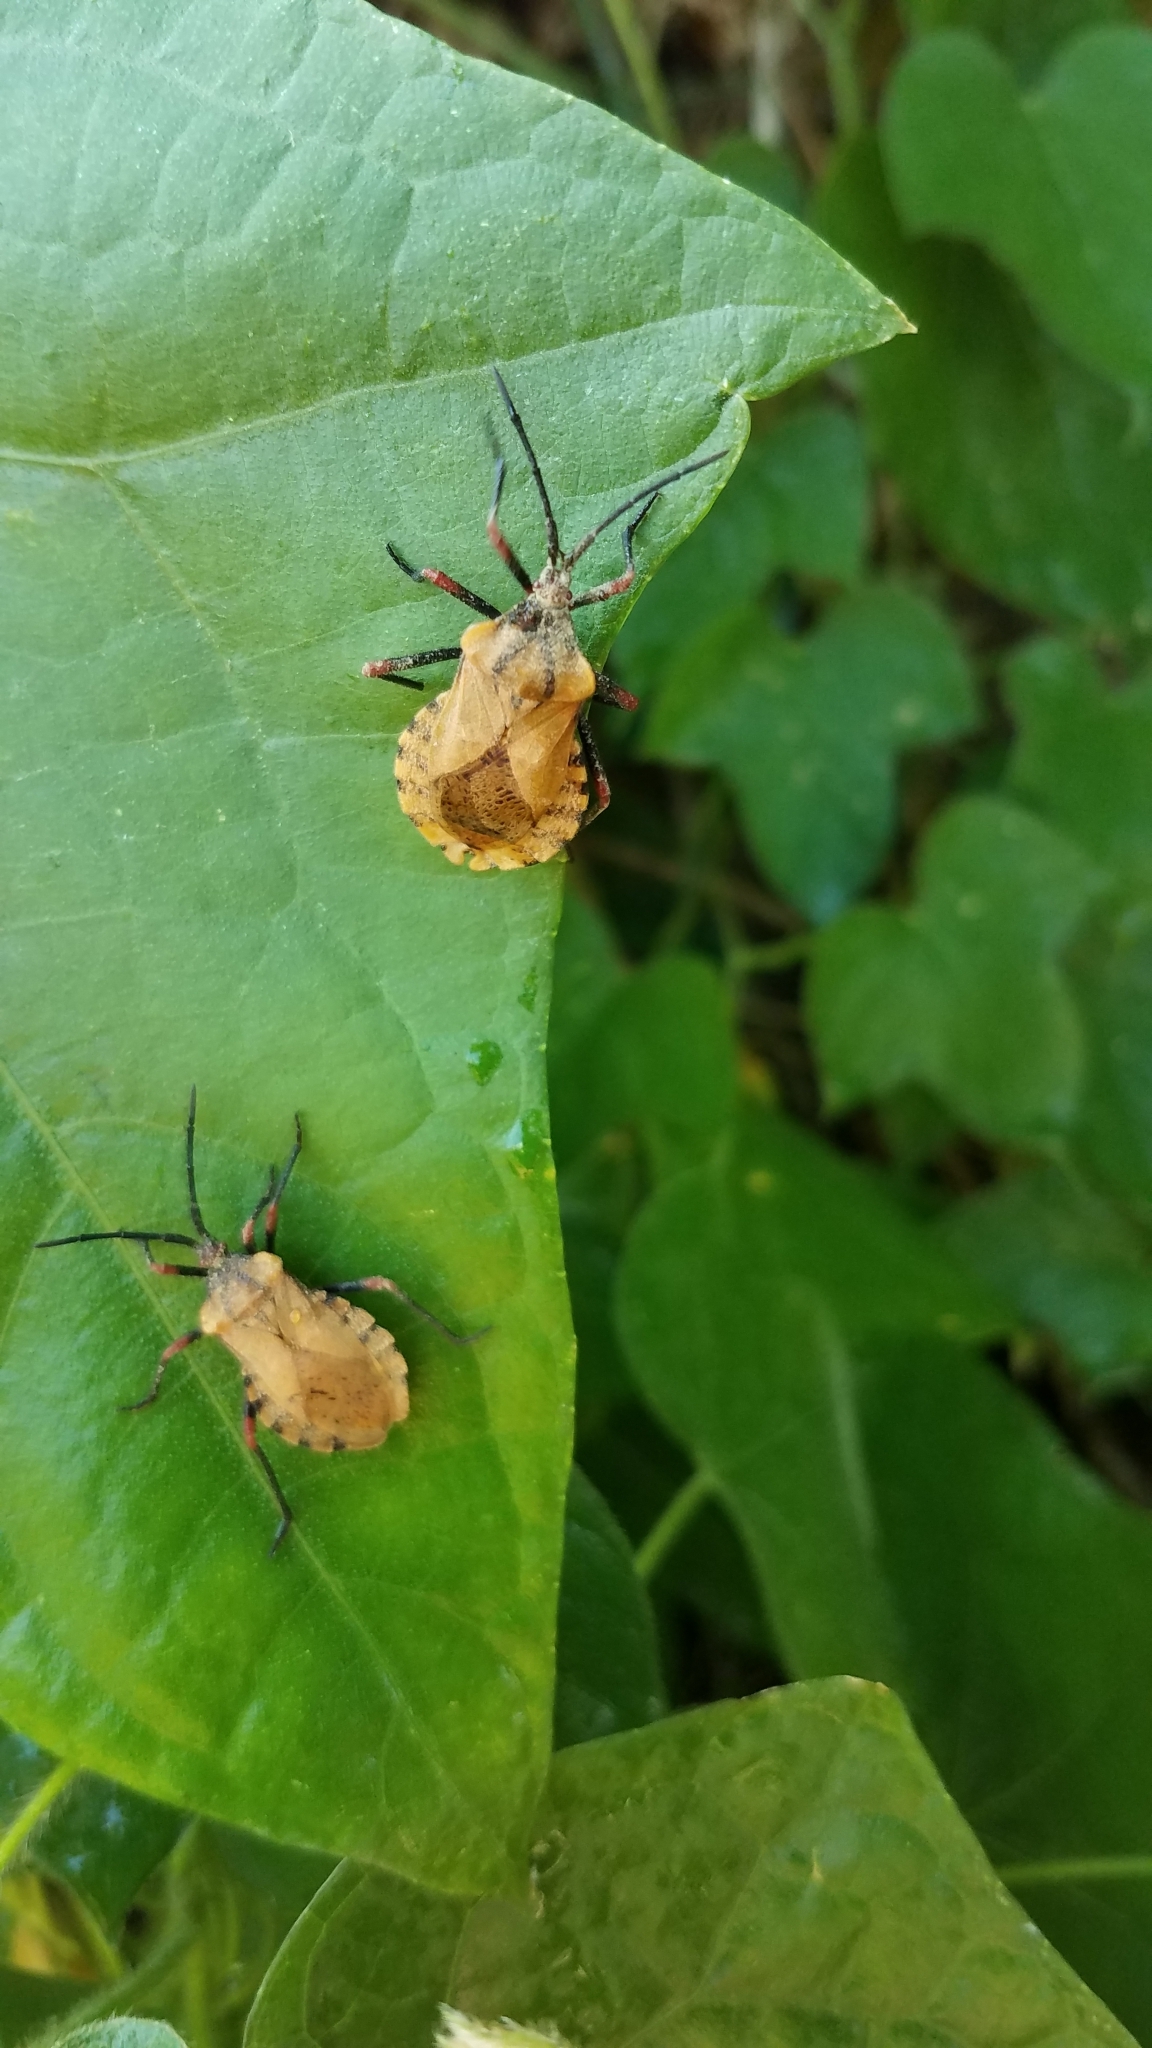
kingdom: Animalia
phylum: Arthropoda
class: Insecta
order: Hemiptera
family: Coreidae
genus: Spartocera
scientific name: Spartocera fusca
